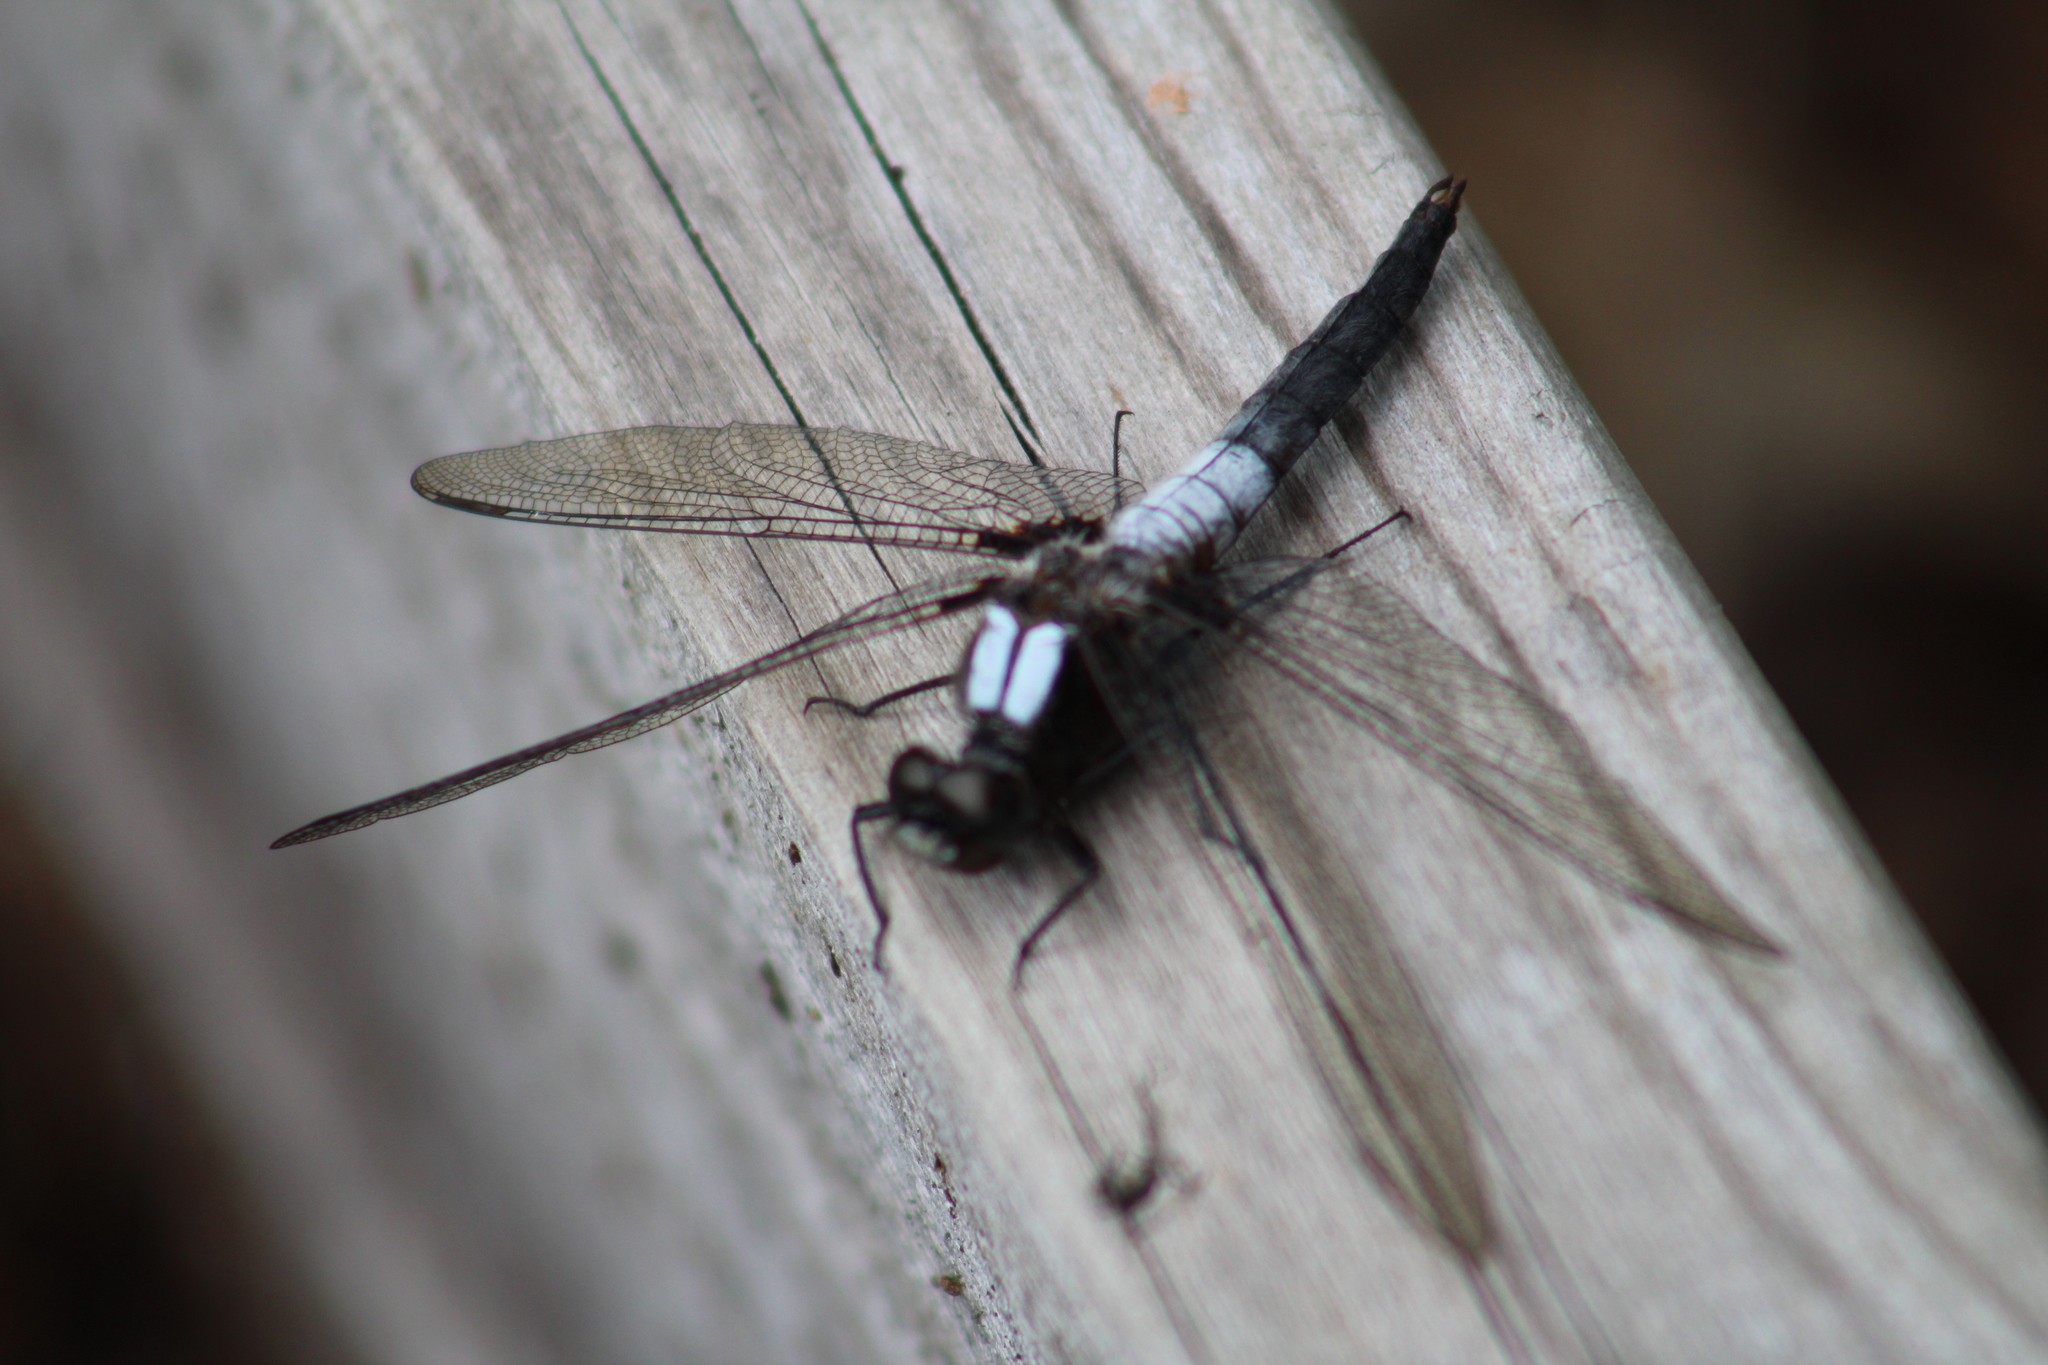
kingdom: Animalia
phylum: Arthropoda
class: Insecta
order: Odonata
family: Libellulidae
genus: Ladona
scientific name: Ladona julia
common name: Chalk-fronted corporal
